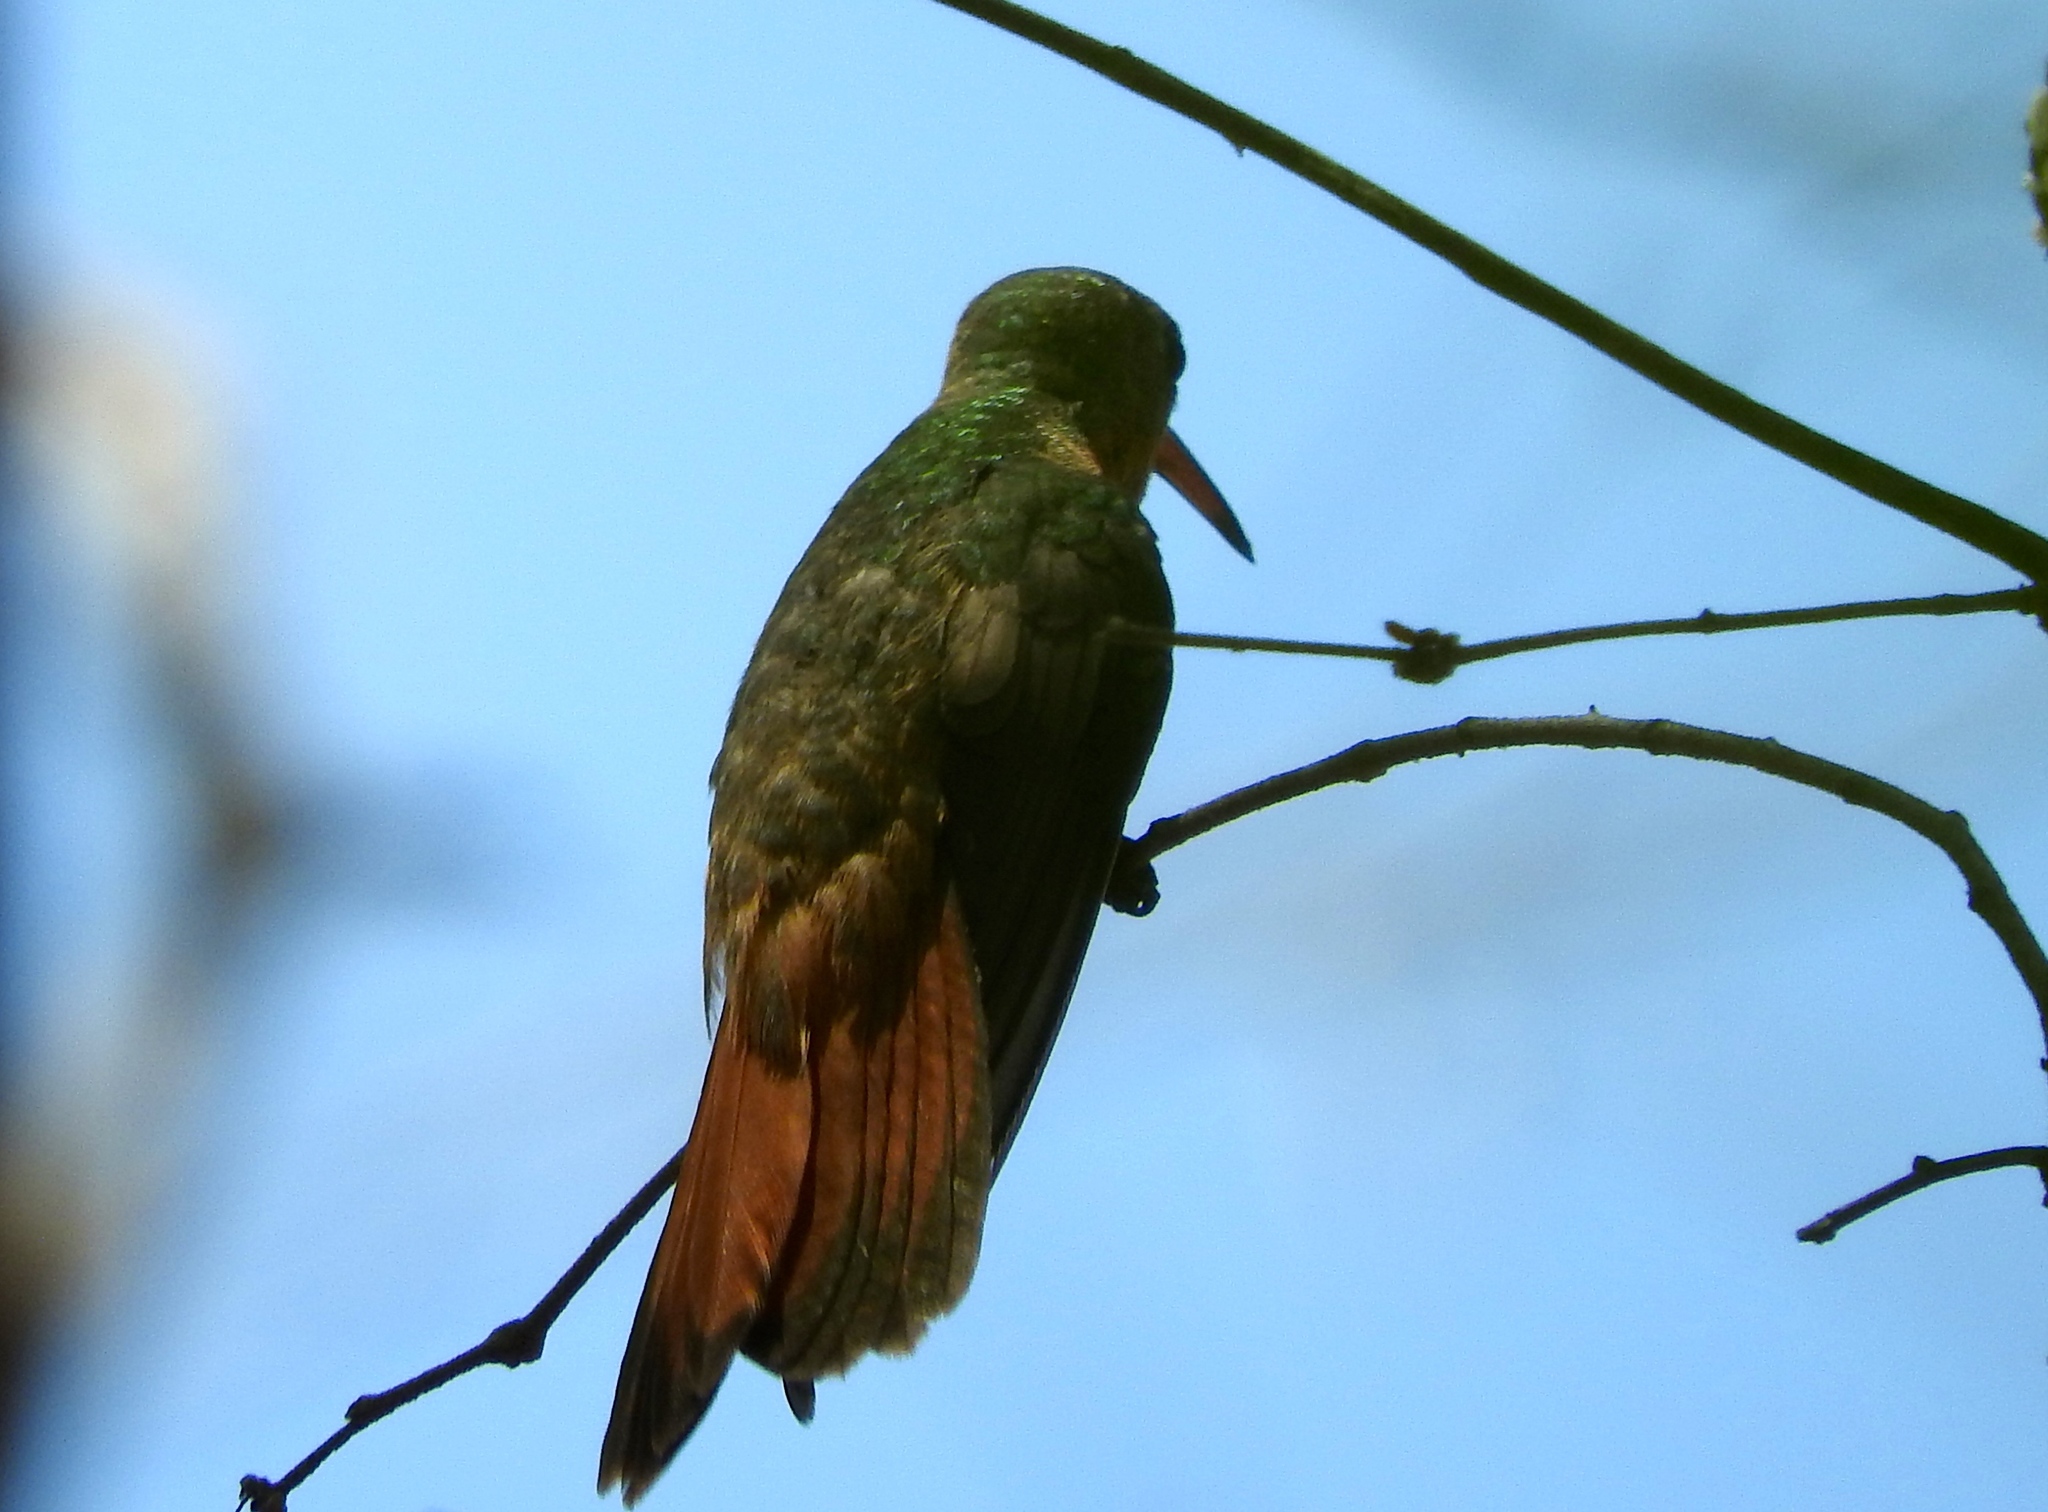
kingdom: Animalia
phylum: Chordata
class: Aves
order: Apodiformes
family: Trochilidae
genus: Amazilia
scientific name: Amazilia rutila
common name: Cinnamon hummingbird
